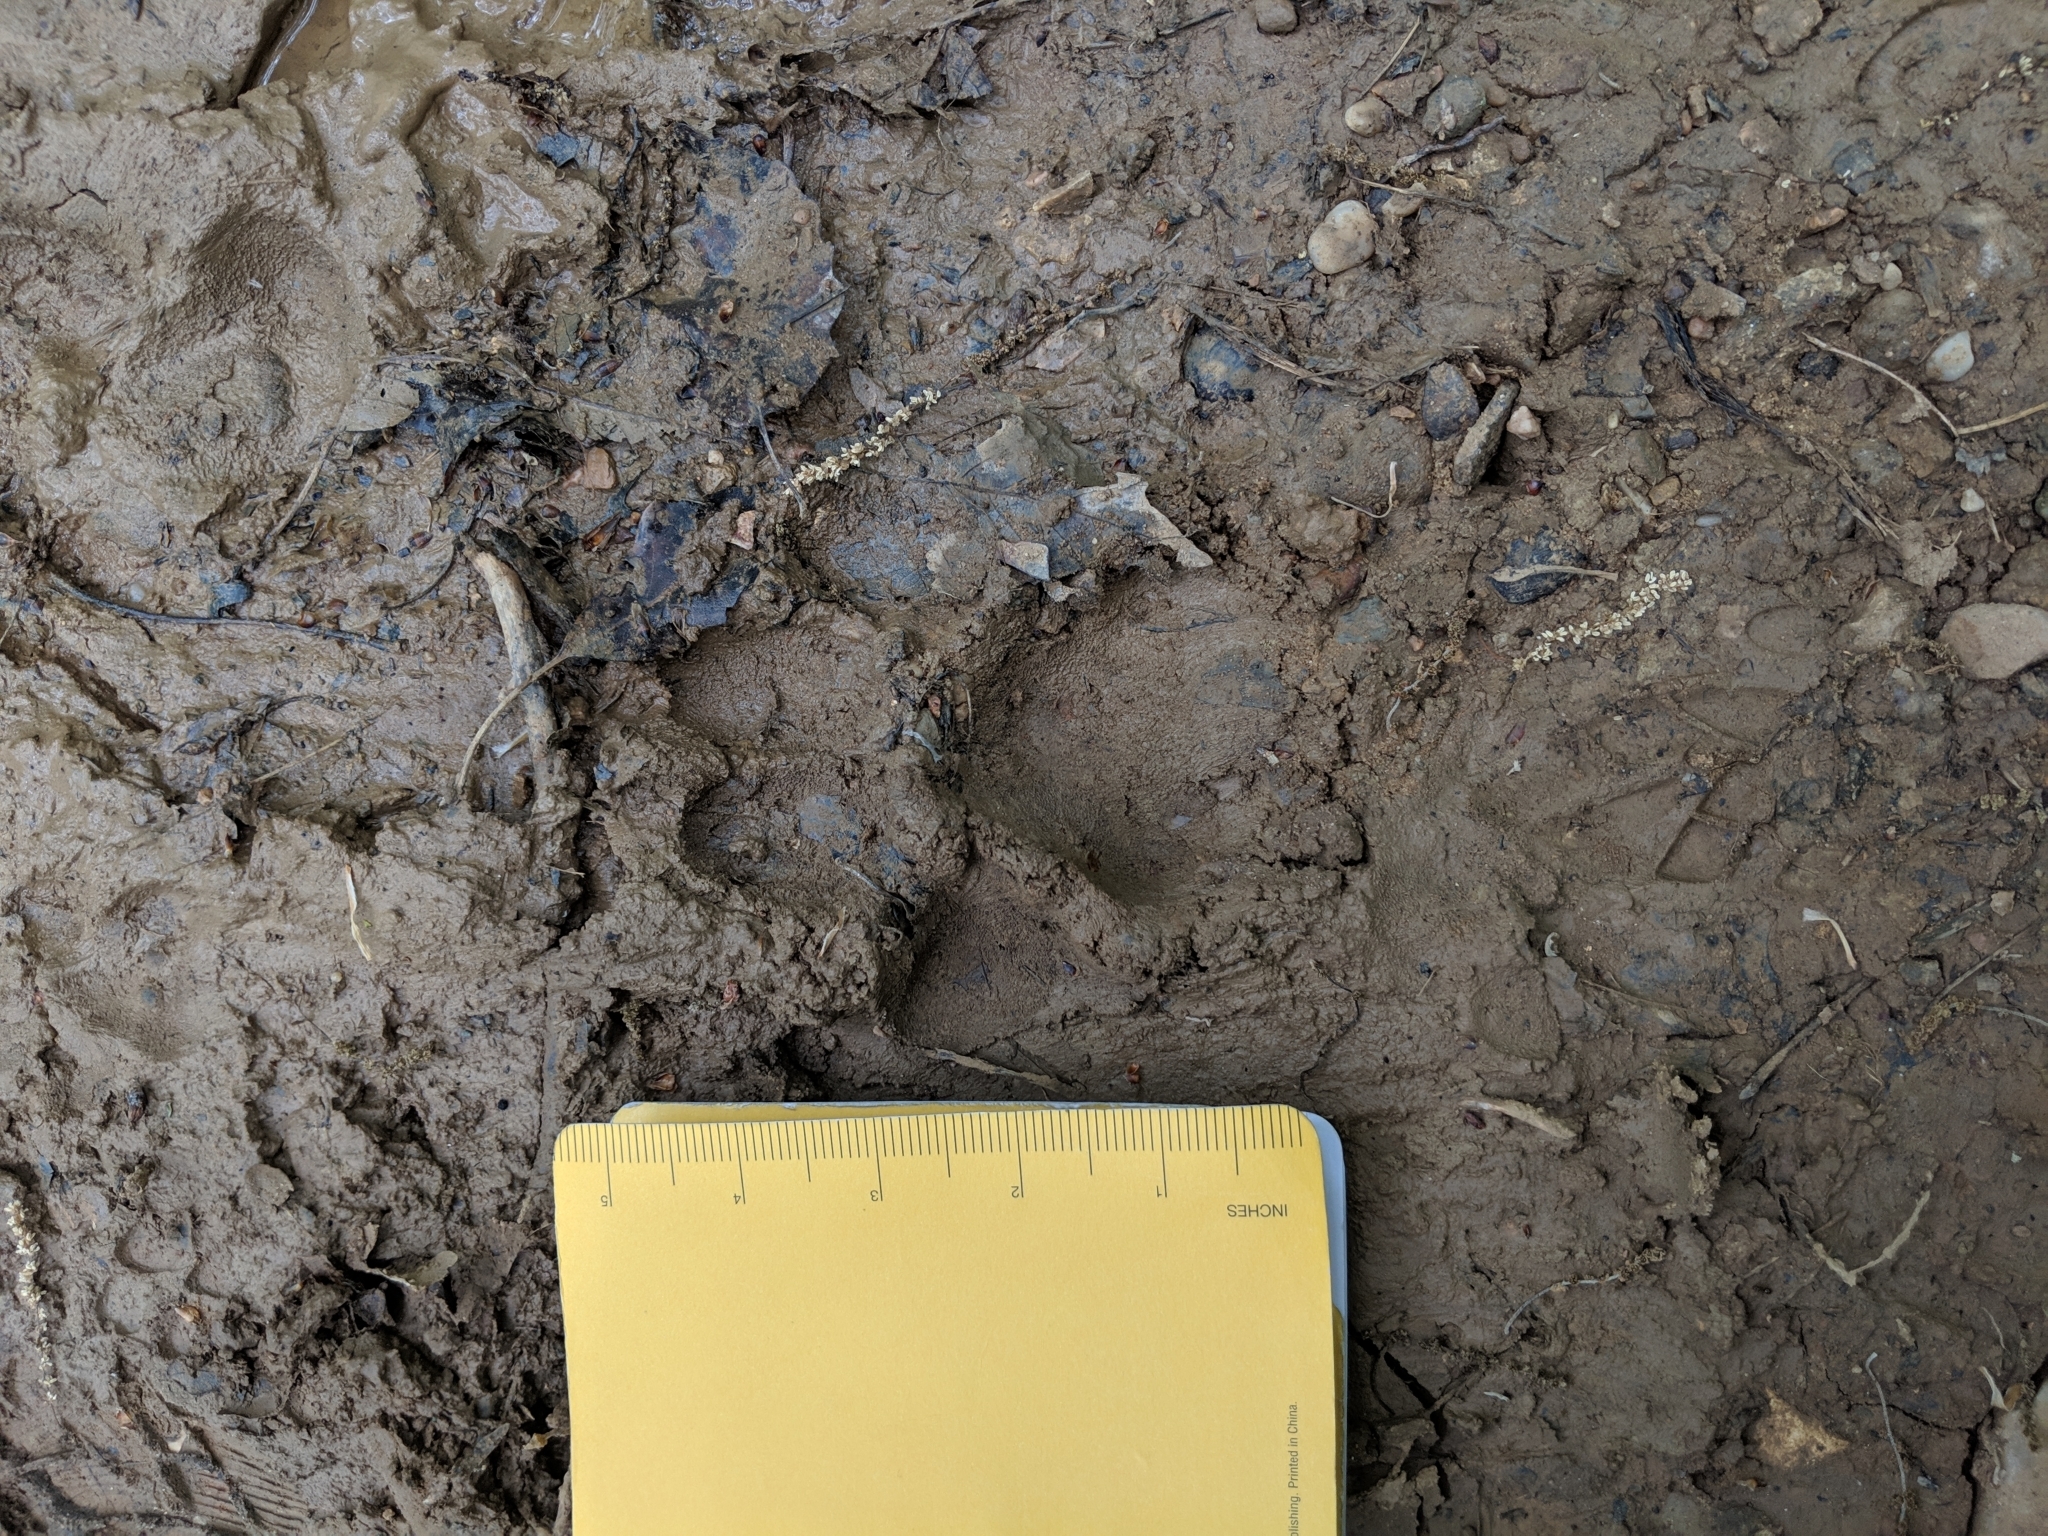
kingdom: Animalia
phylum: Chordata
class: Mammalia
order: Carnivora
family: Canidae
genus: Canis
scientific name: Canis lupus
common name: Gray wolf
